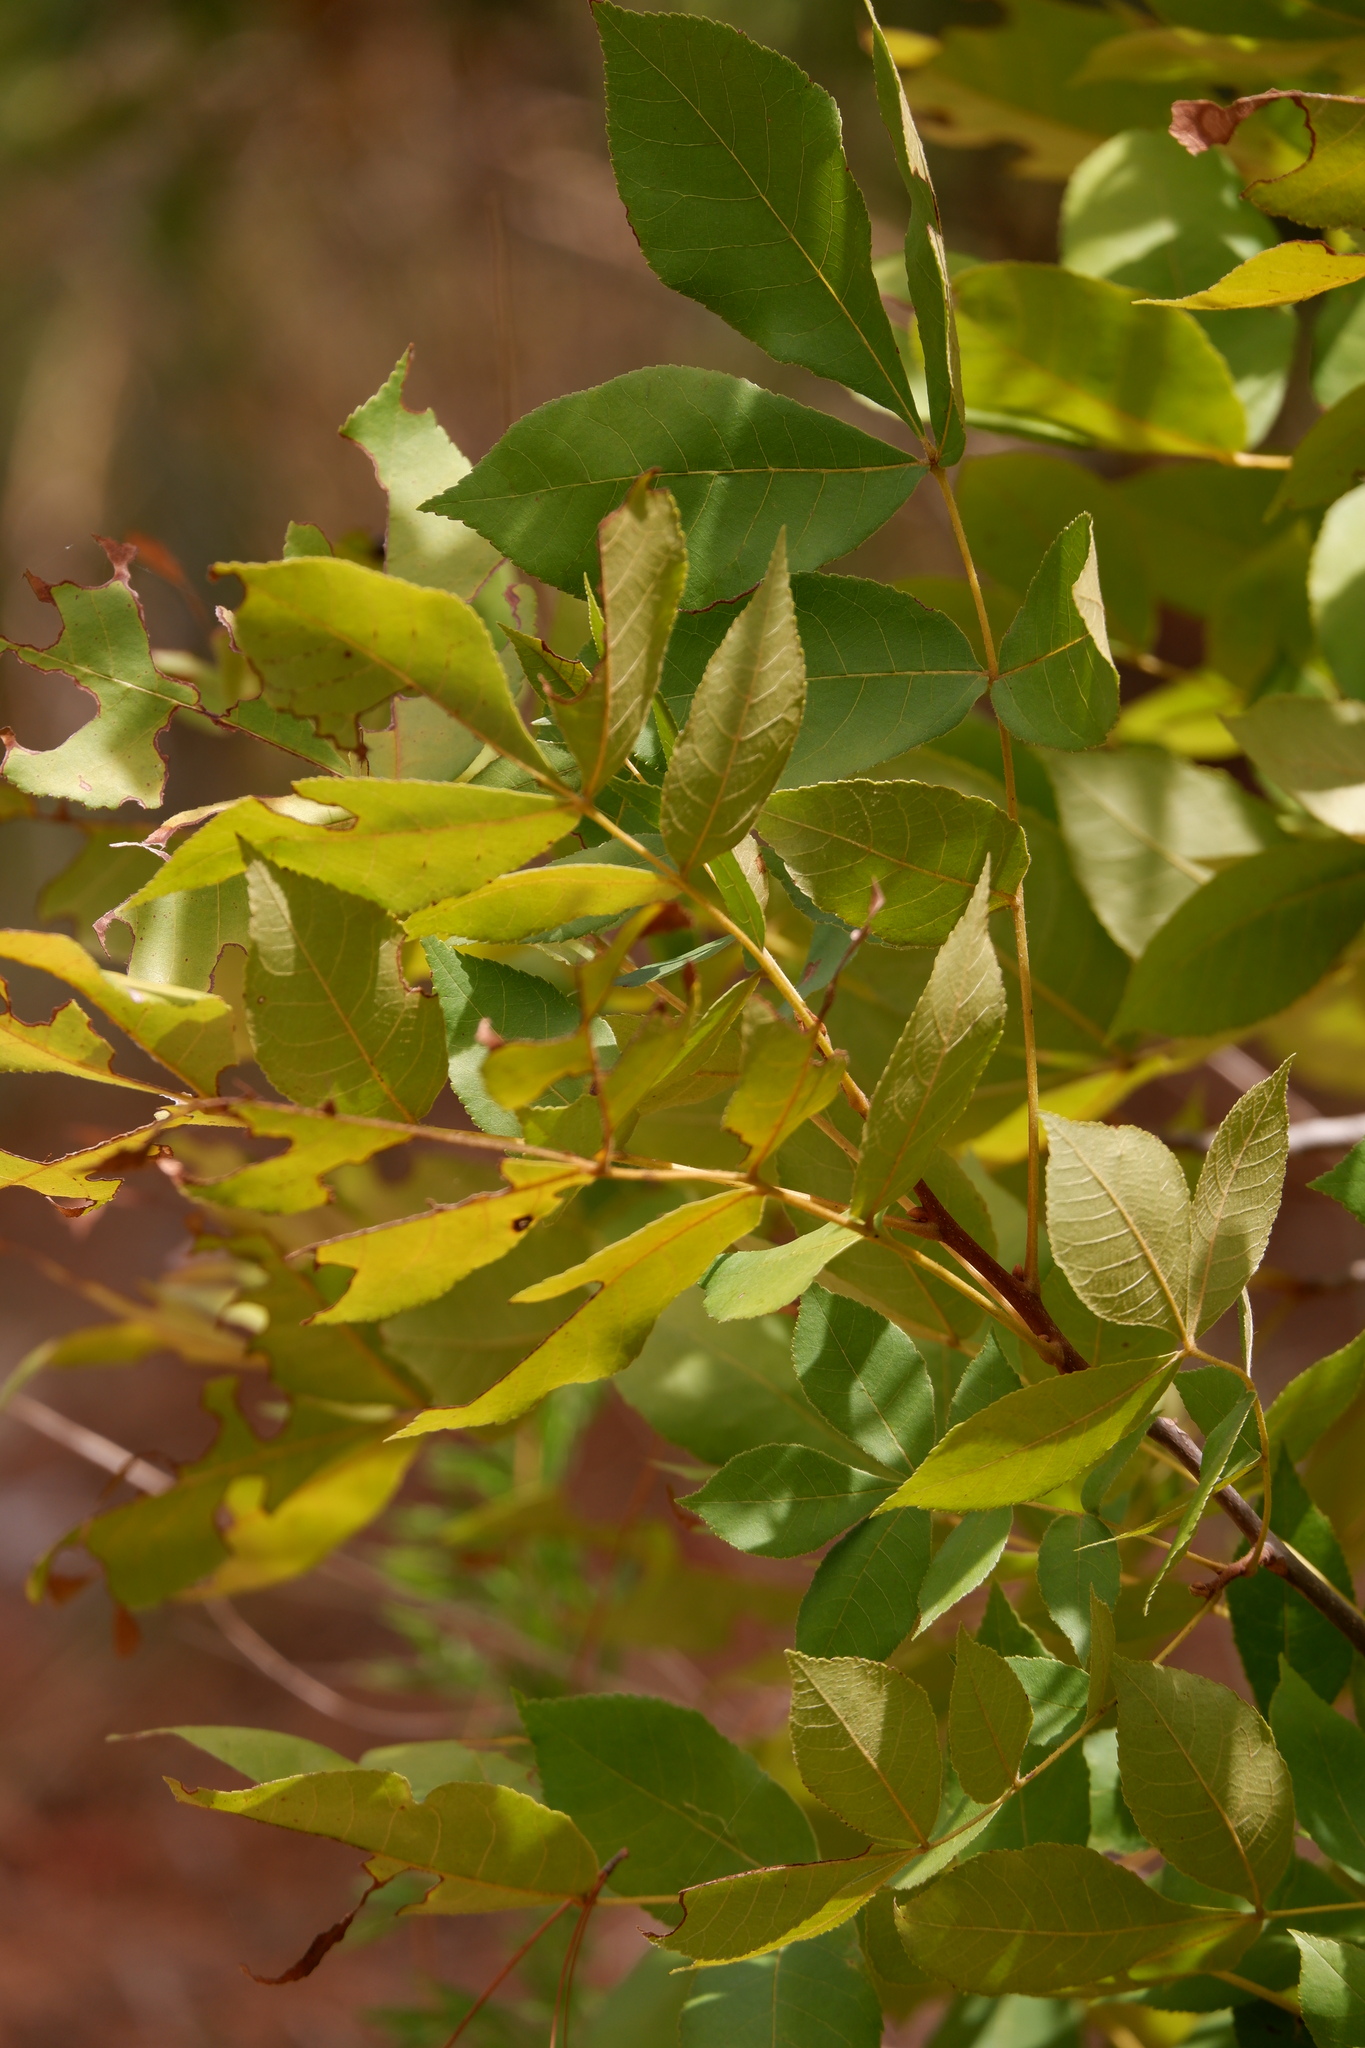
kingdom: Plantae
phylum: Tracheophyta
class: Magnoliopsida
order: Fagales
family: Juglandaceae
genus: Carya
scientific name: Carya texana
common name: Black hickory
